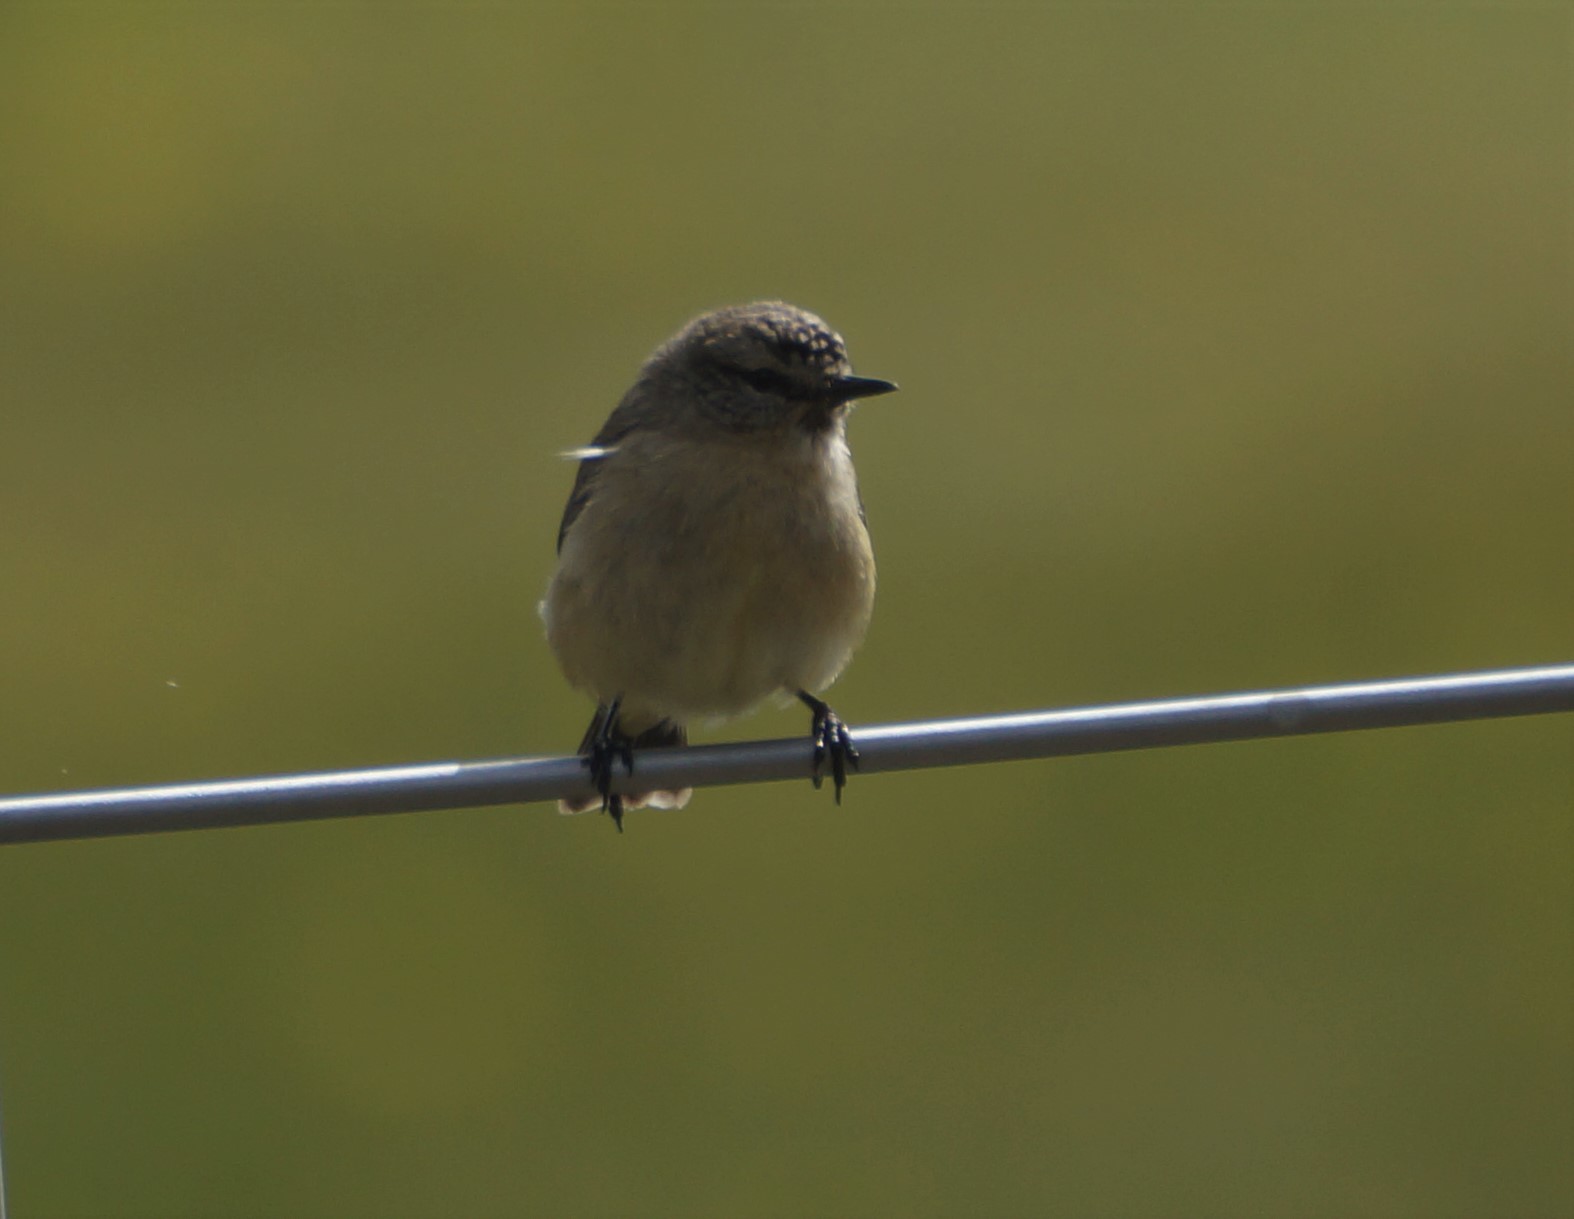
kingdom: Animalia
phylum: Chordata
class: Aves
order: Passeriformes
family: Acanthizidae
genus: Acanthiza
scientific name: Acanthiza chrysorrhoa
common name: Yellow-rumped thornbill
